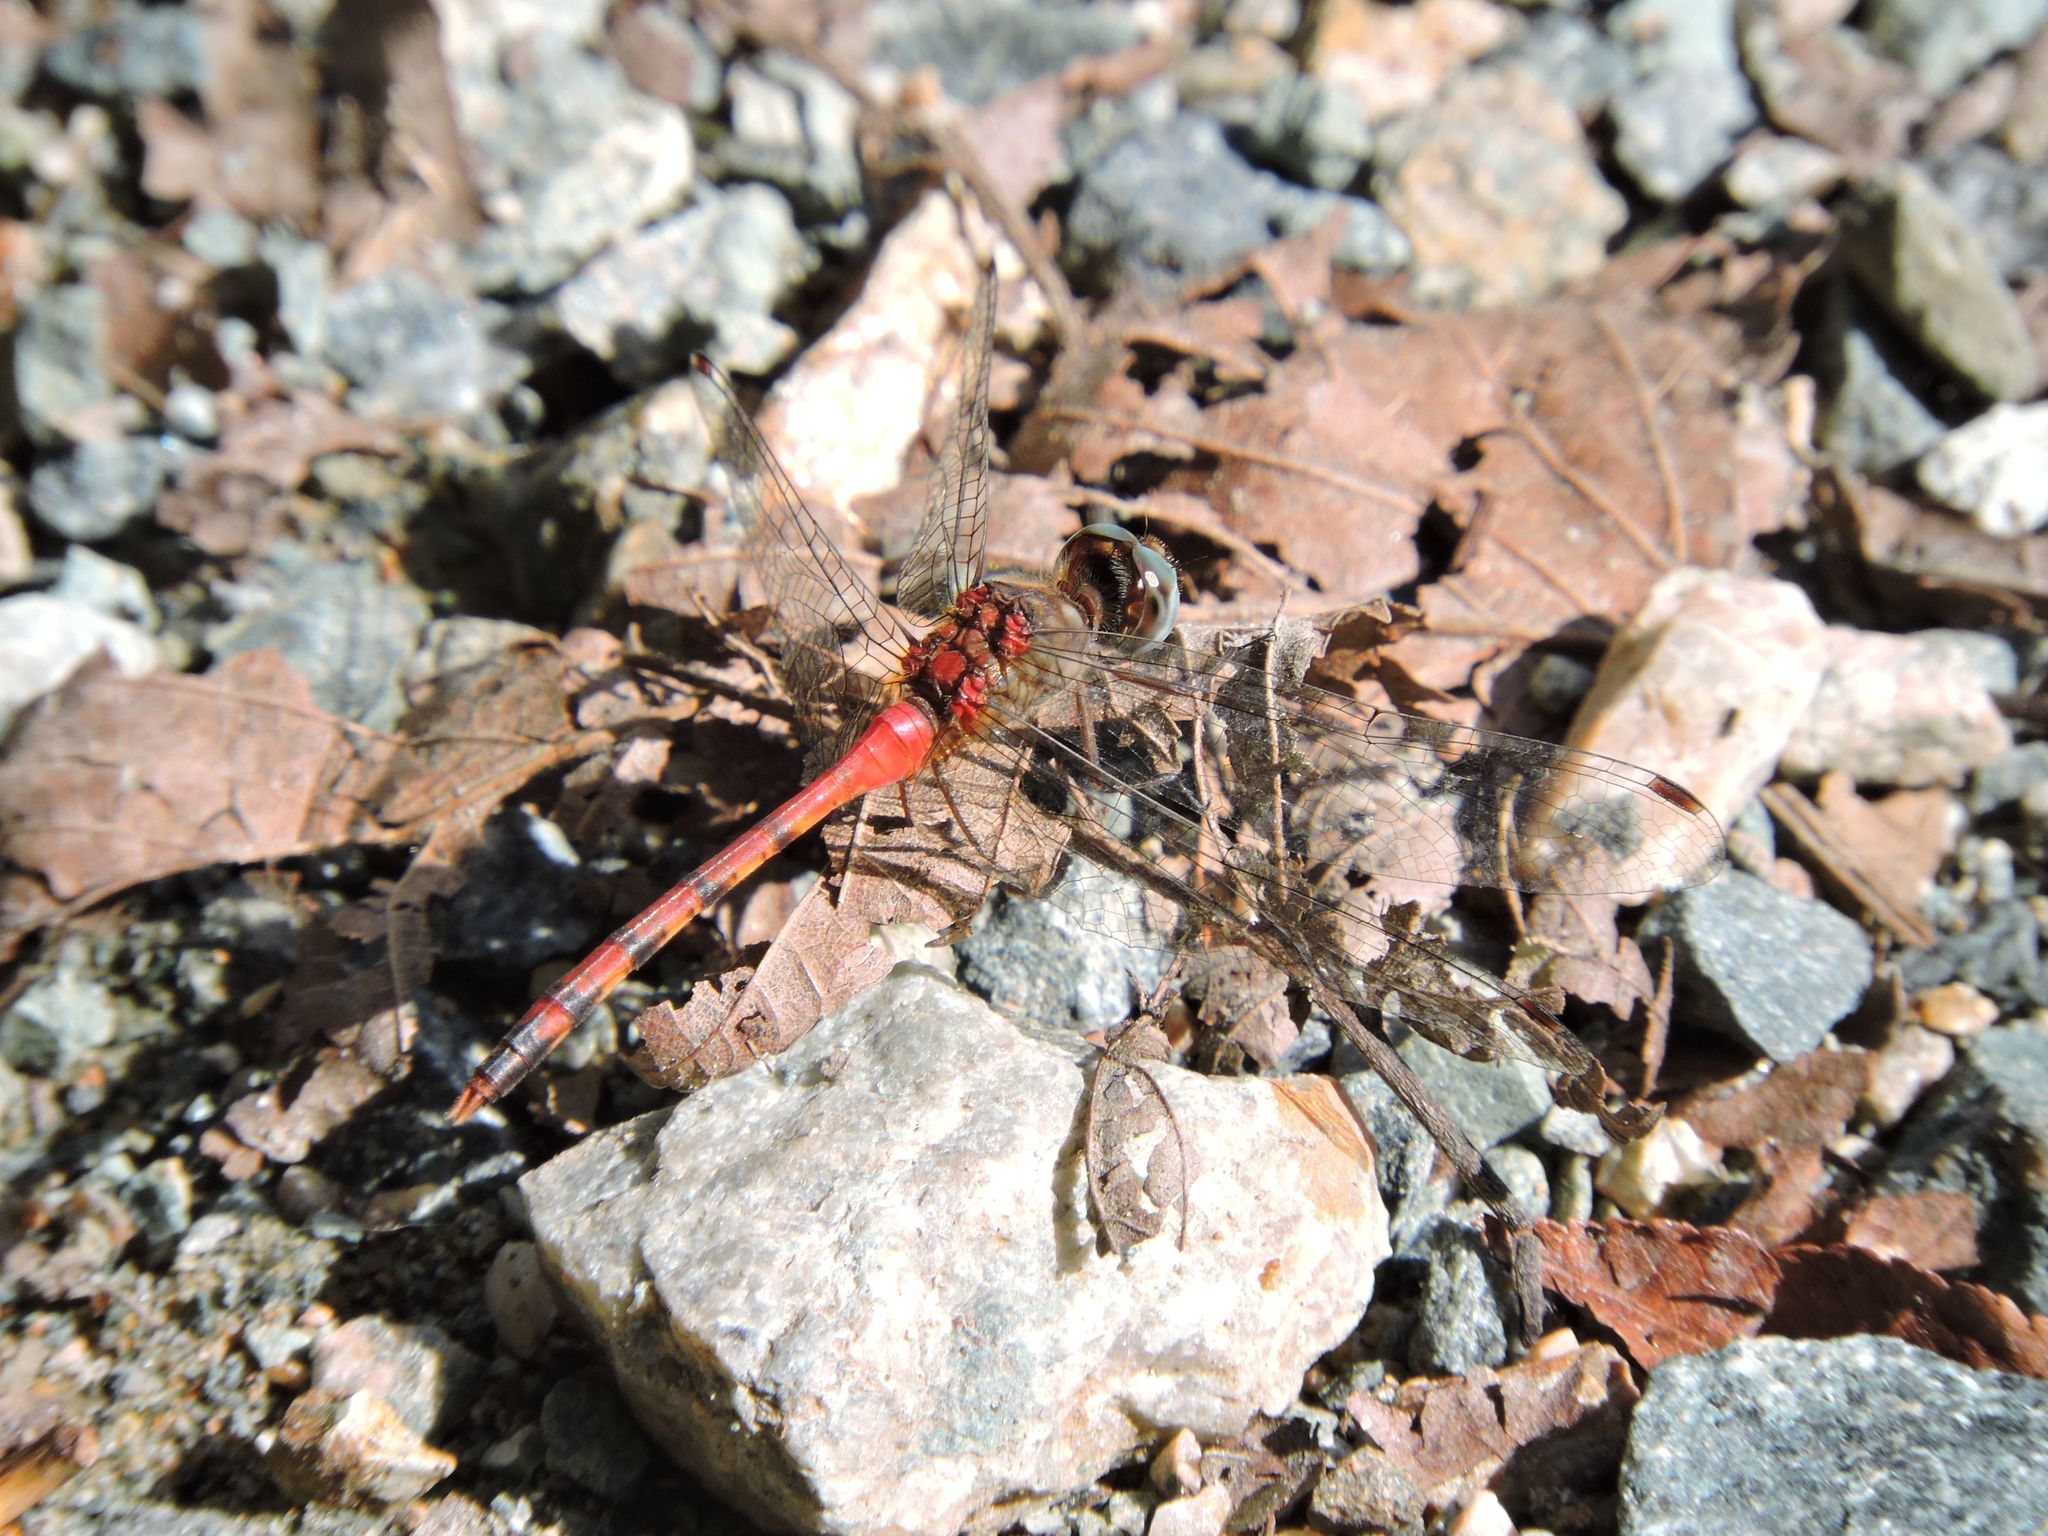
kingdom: Animalia
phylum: Arthropoda
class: Insecta
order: Odonata
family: Libellulidae
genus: Sympetrum
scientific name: Sympetrum ambiguum
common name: Blue-faced meadowhawk
